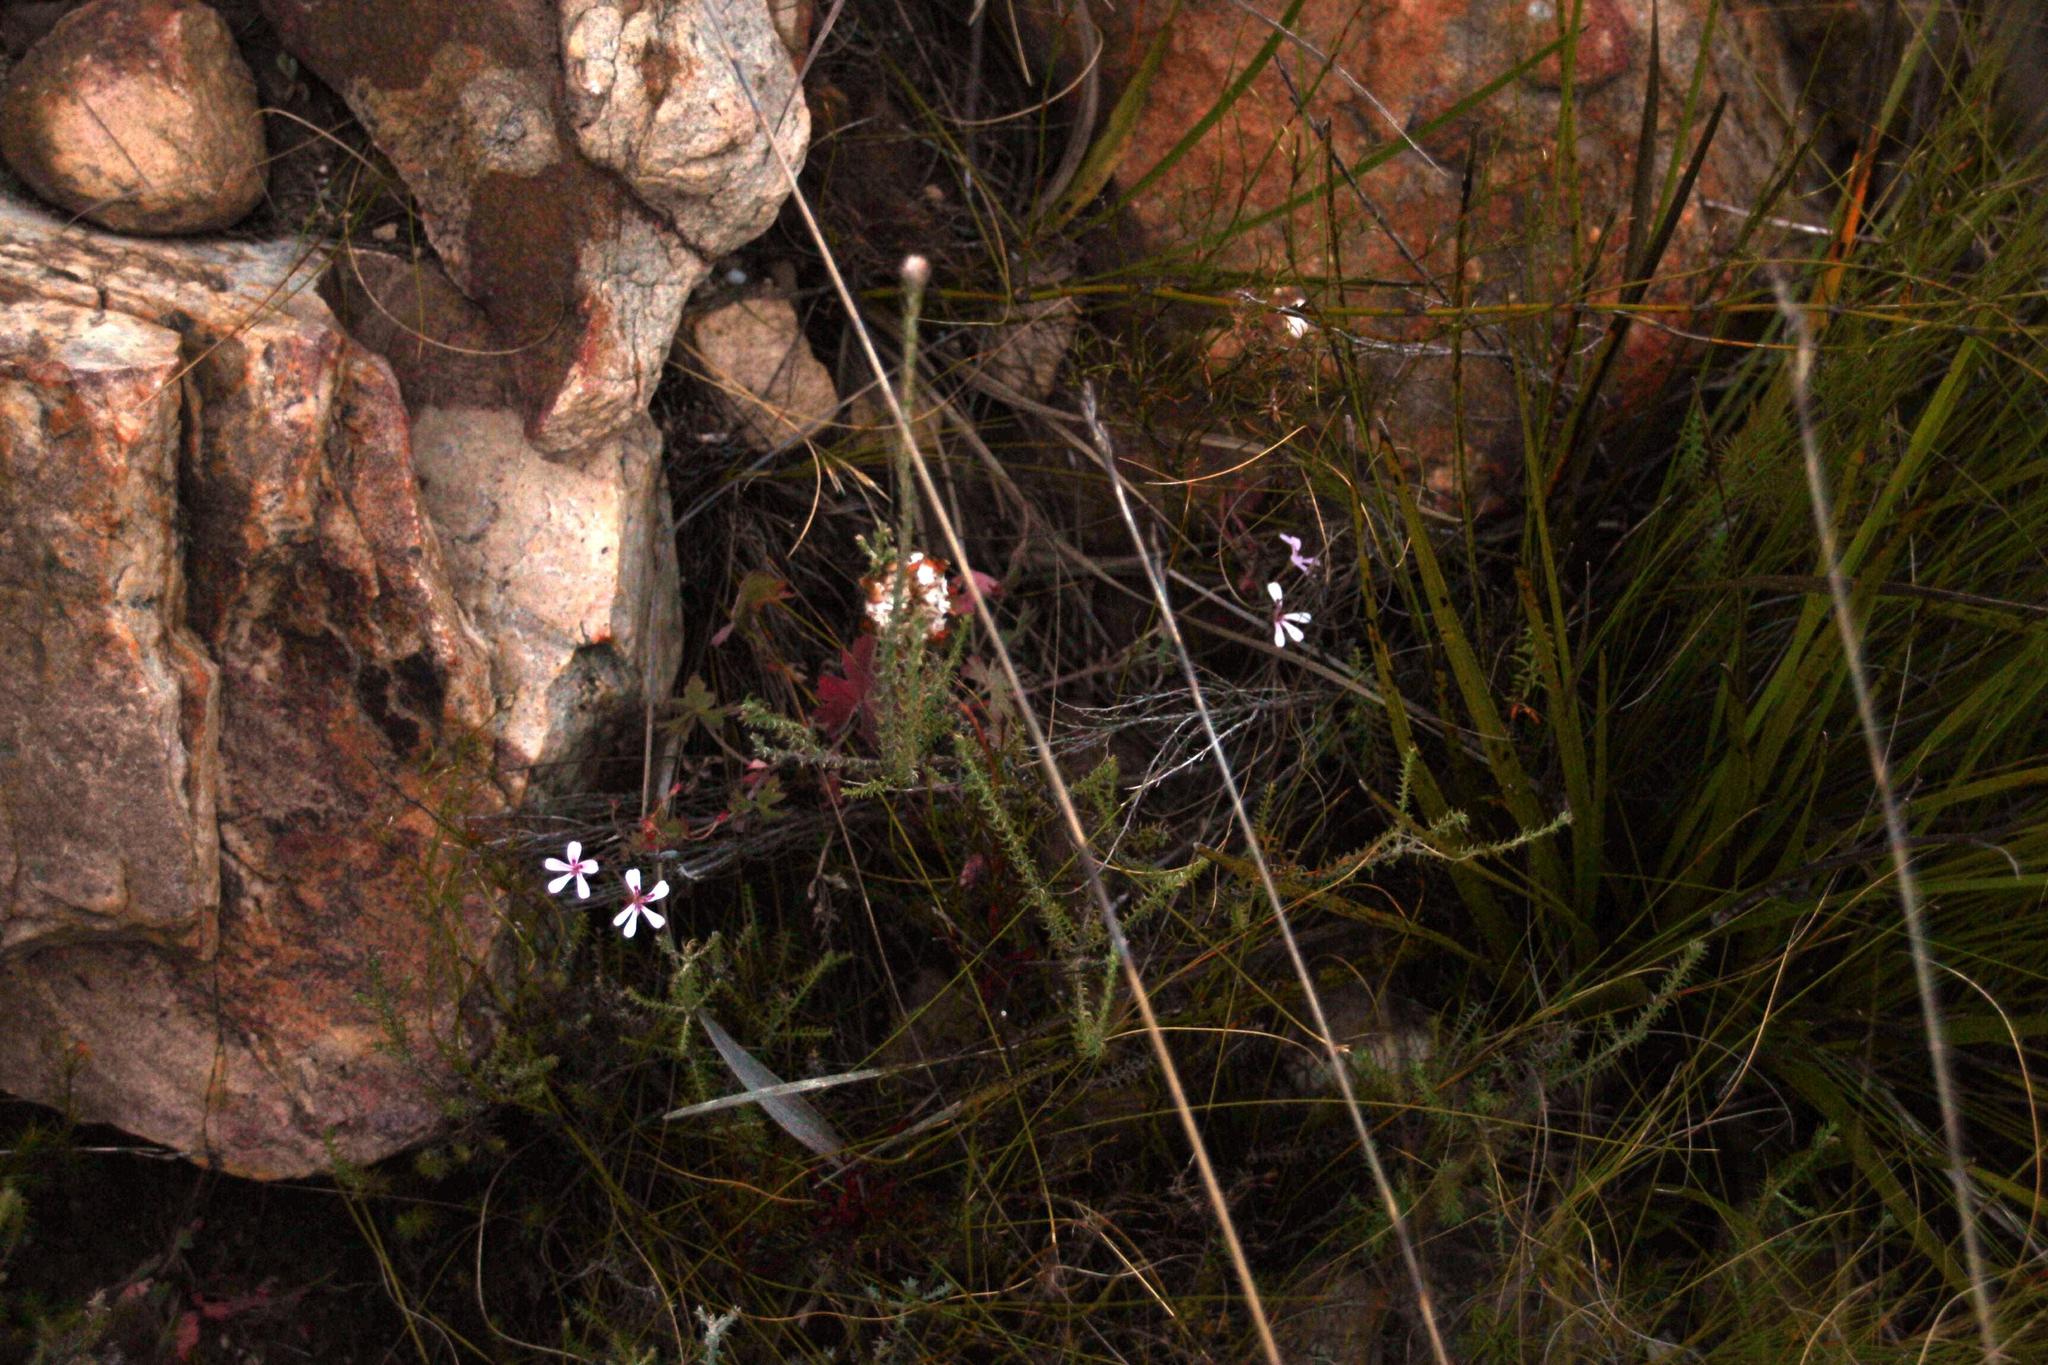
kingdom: Plantae
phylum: Tracheophyta
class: Magnoliopsida
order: Geraniales
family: Geraniaceae
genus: Pelargonium
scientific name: Pelargonium patulum
